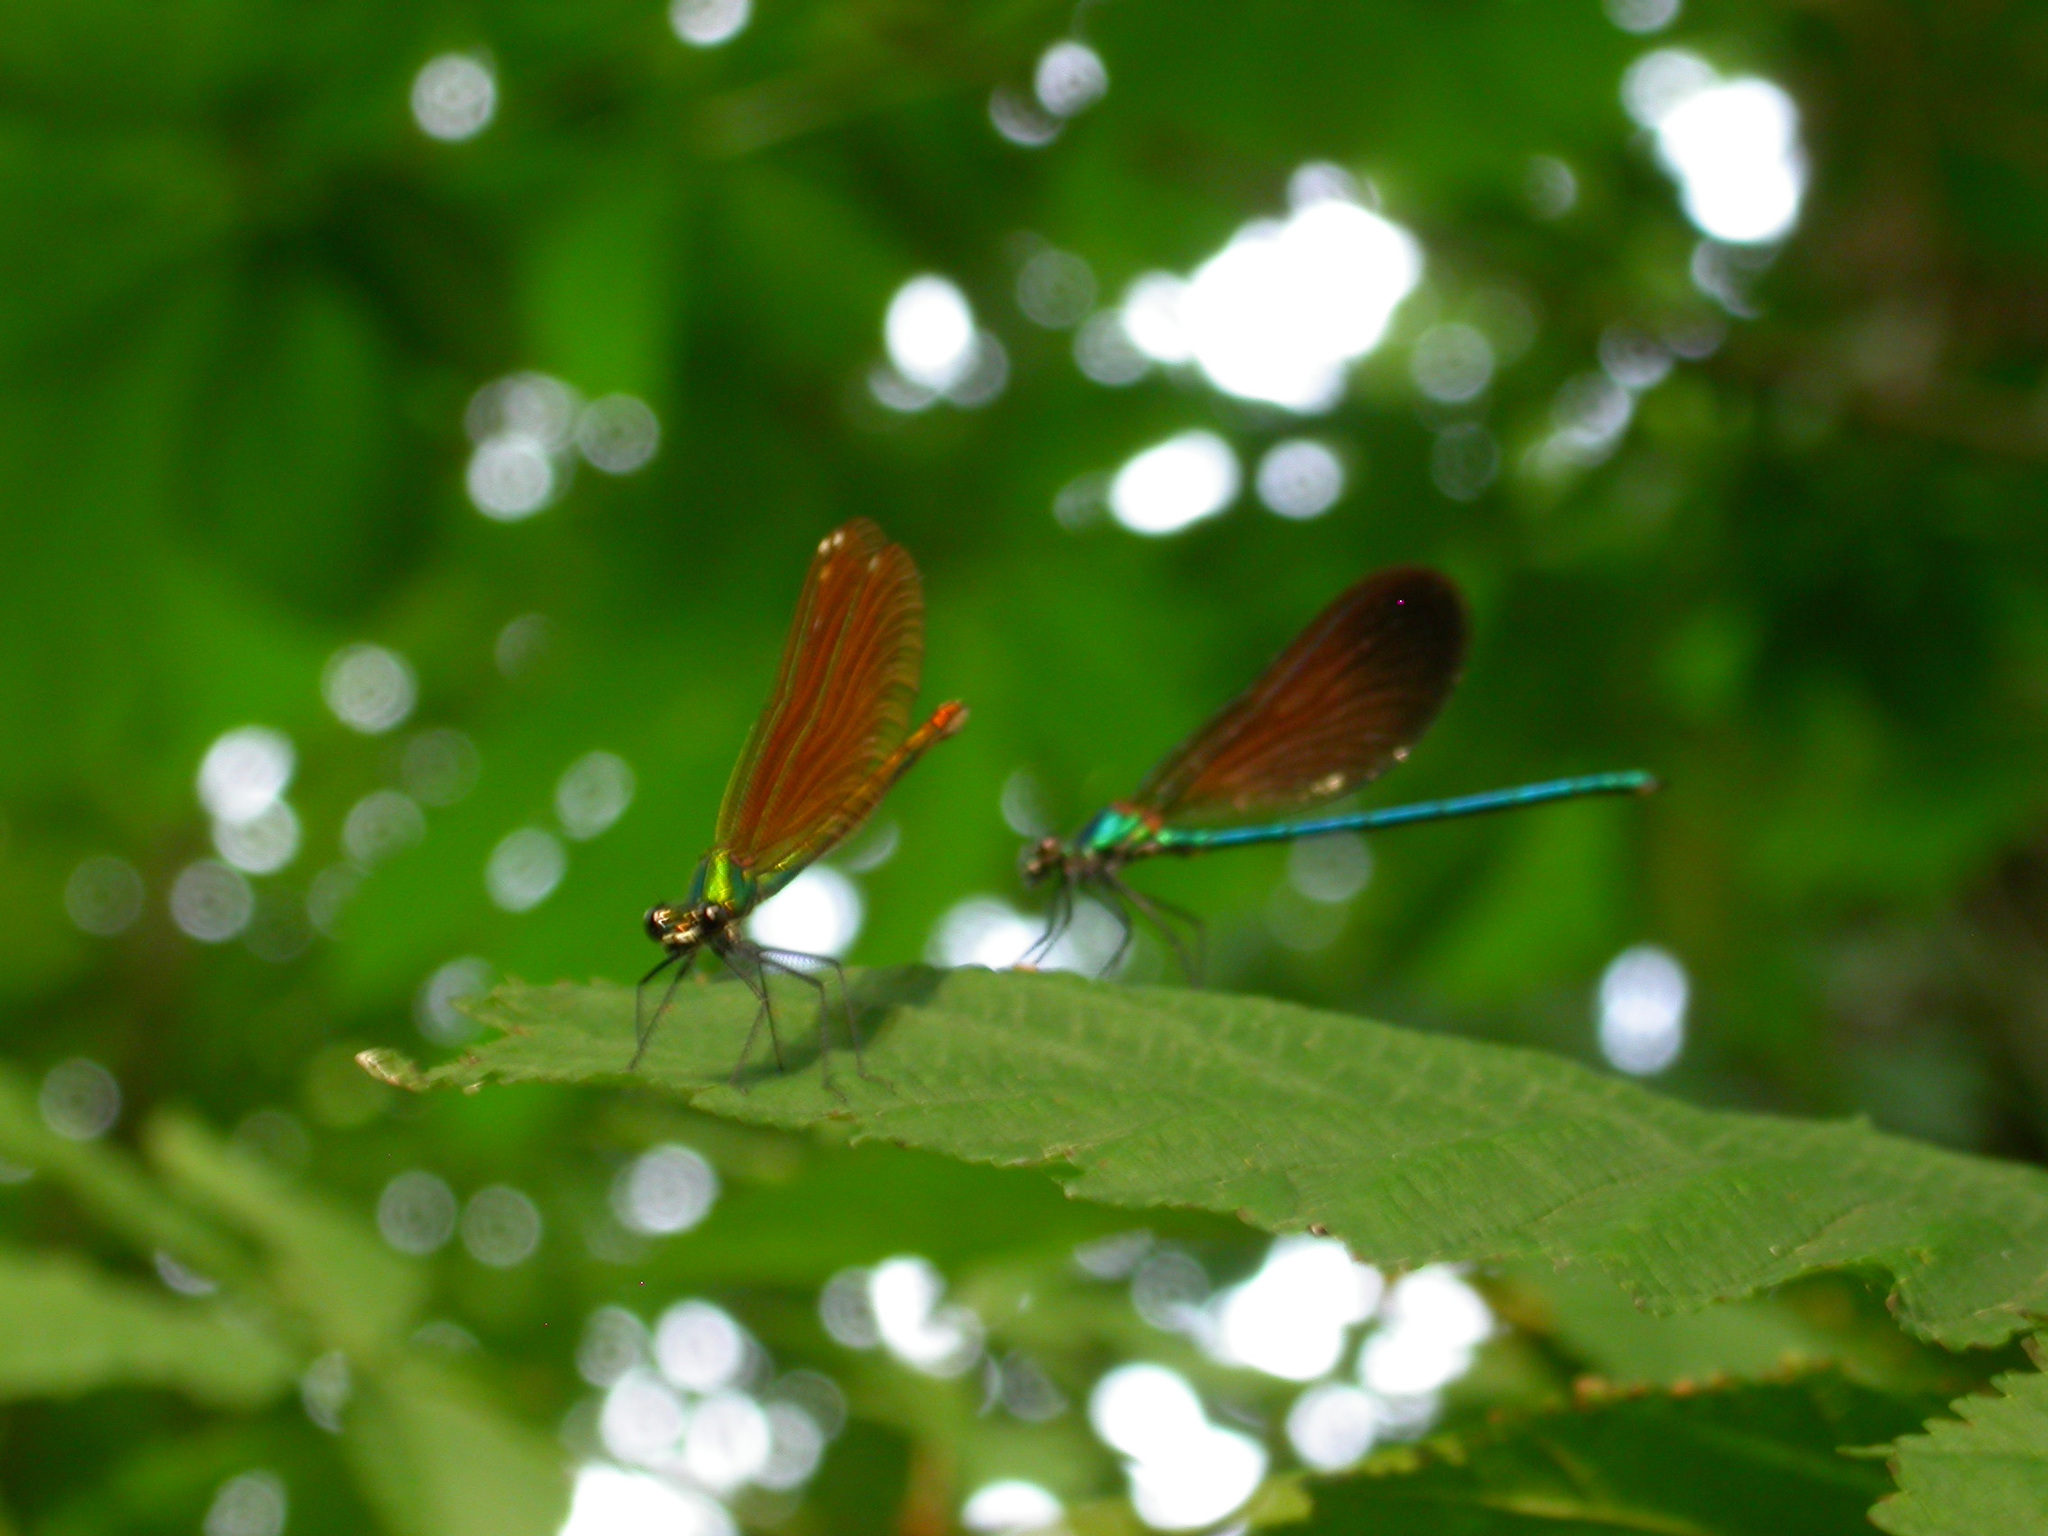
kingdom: Animalia
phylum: Arthropoda
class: Insecta
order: Odonata
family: Calopterygidae
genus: Calopteryx
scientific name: Calopteryx virgo
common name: Beautiful demoiselle
